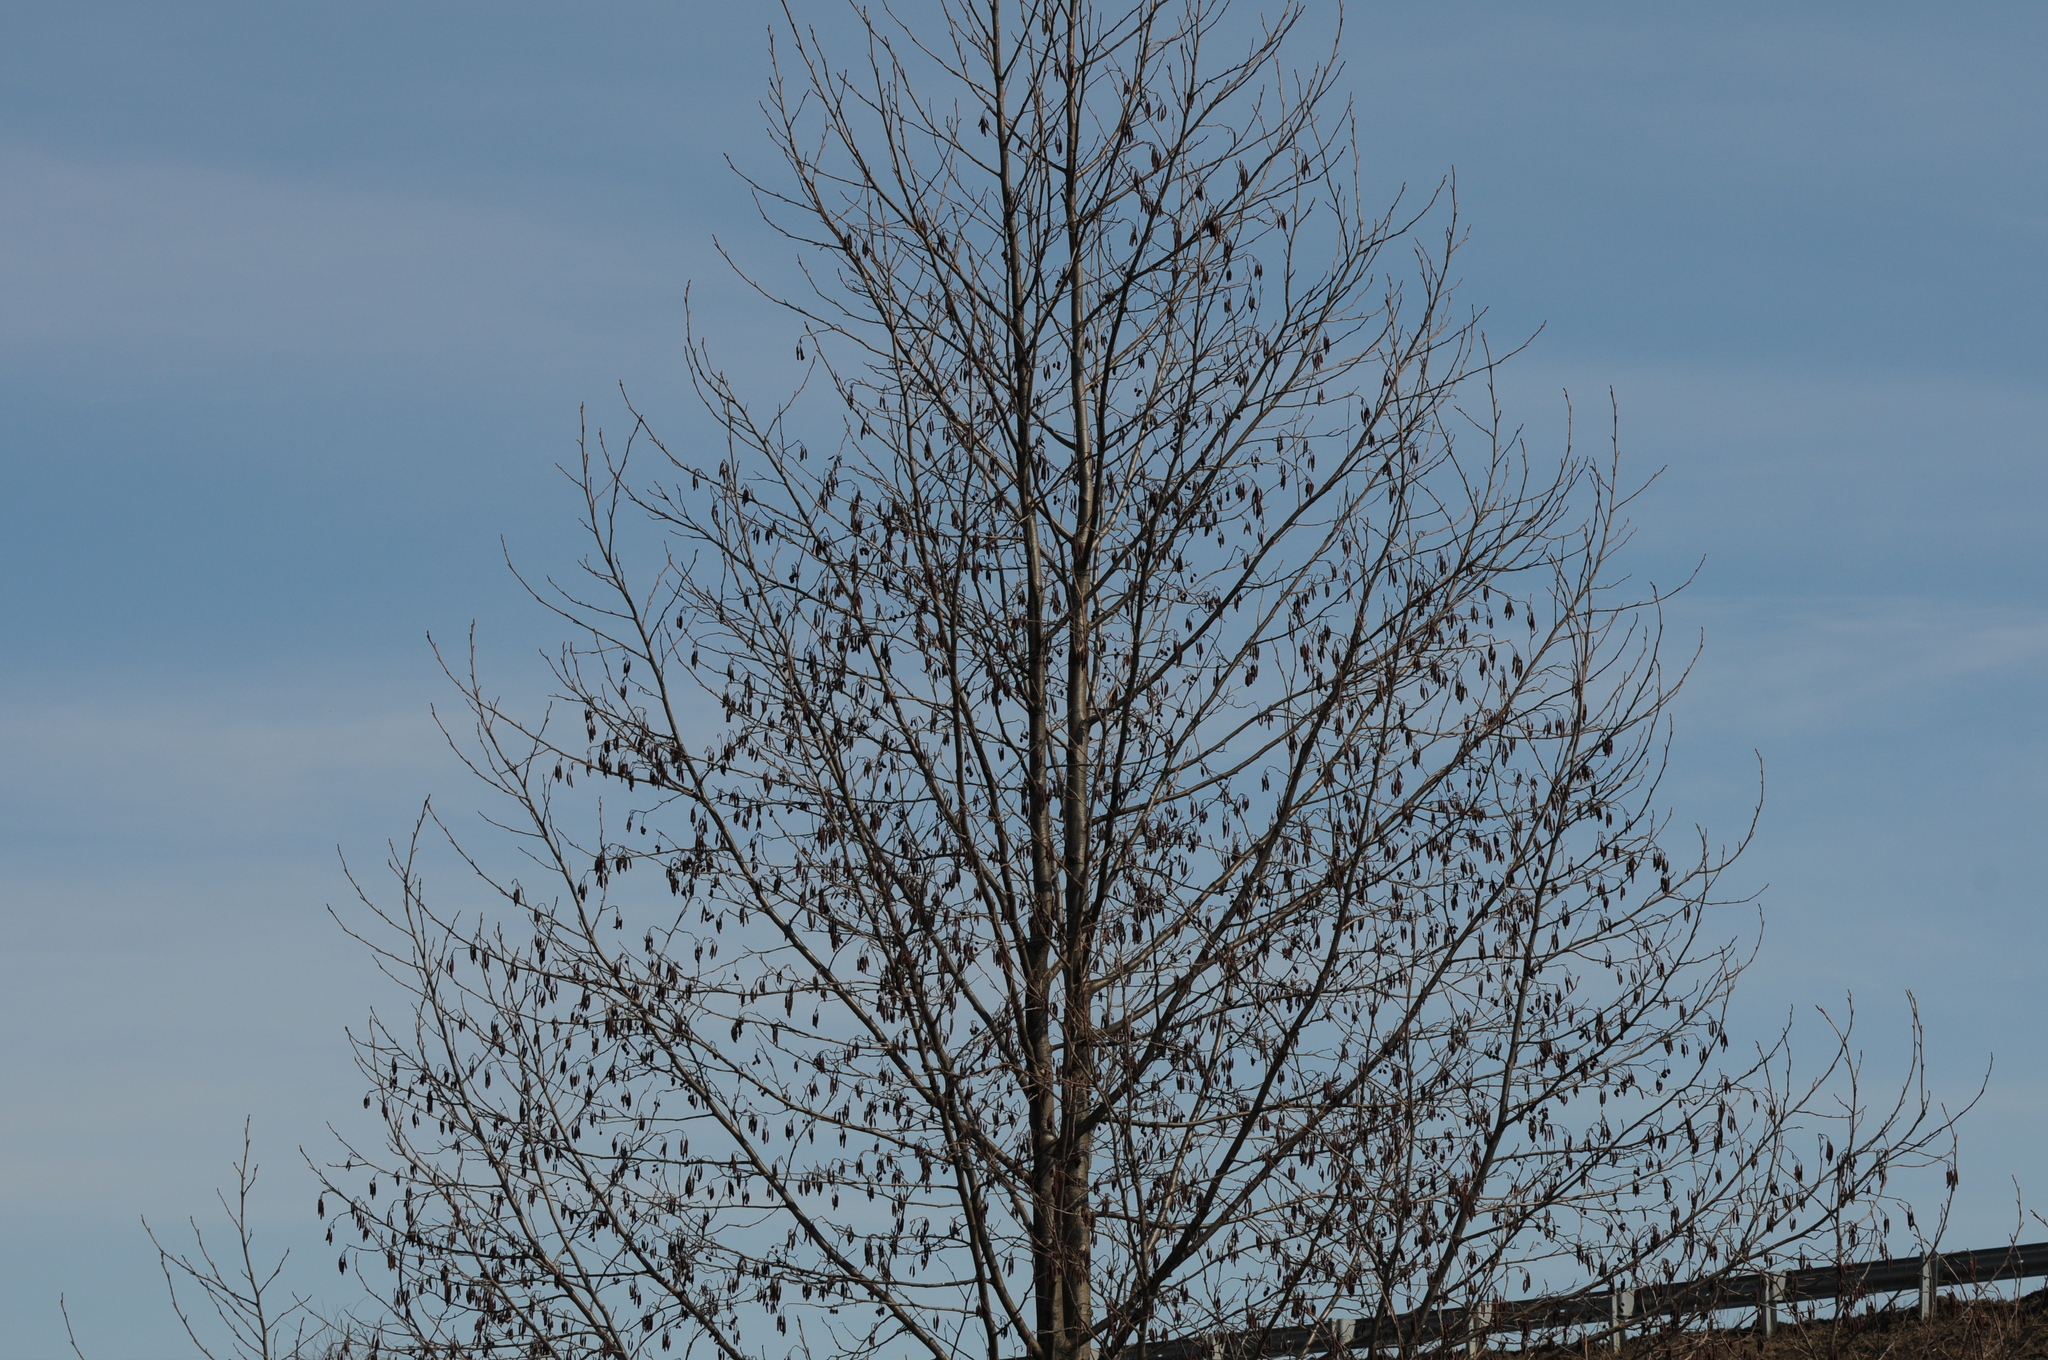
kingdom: Plantae
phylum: Tracheophyta
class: Magnoliopsida
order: Fagales
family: Betulaceae
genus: Alnus
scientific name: Alnus glutinosa
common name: Black alder
